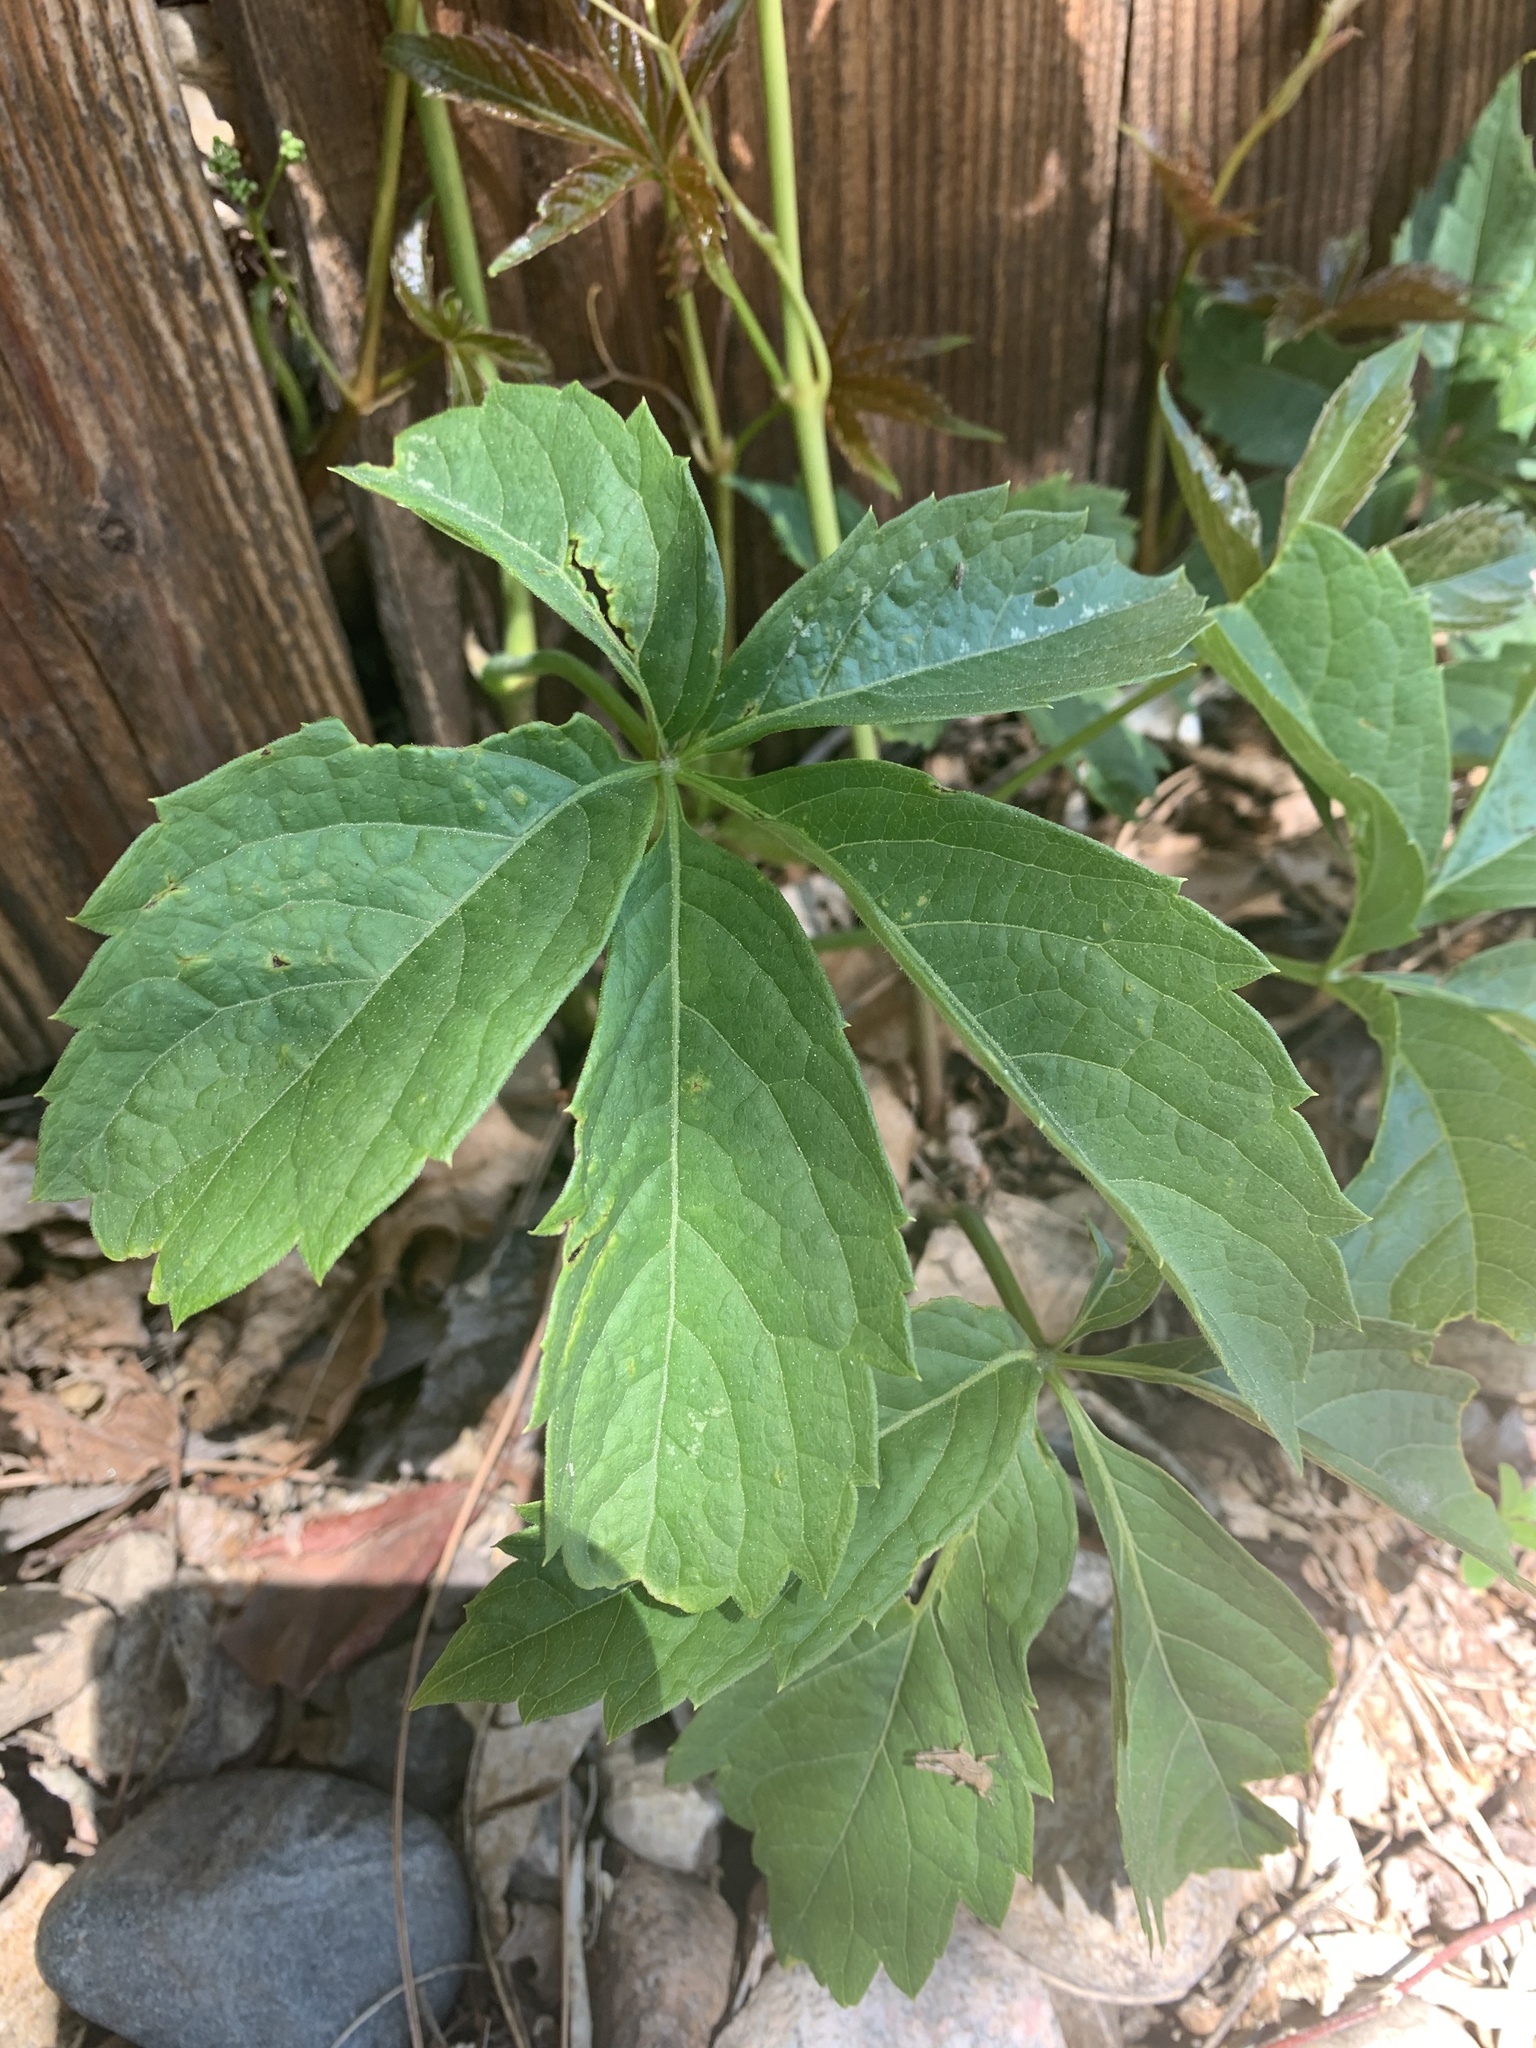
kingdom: Plantae
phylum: Tracheophyta
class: Magnoliopsida
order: Vitales
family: Vitaceae
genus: Parthenocissus
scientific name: Parthenocissus quinquefolia
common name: Virginia-creeper
